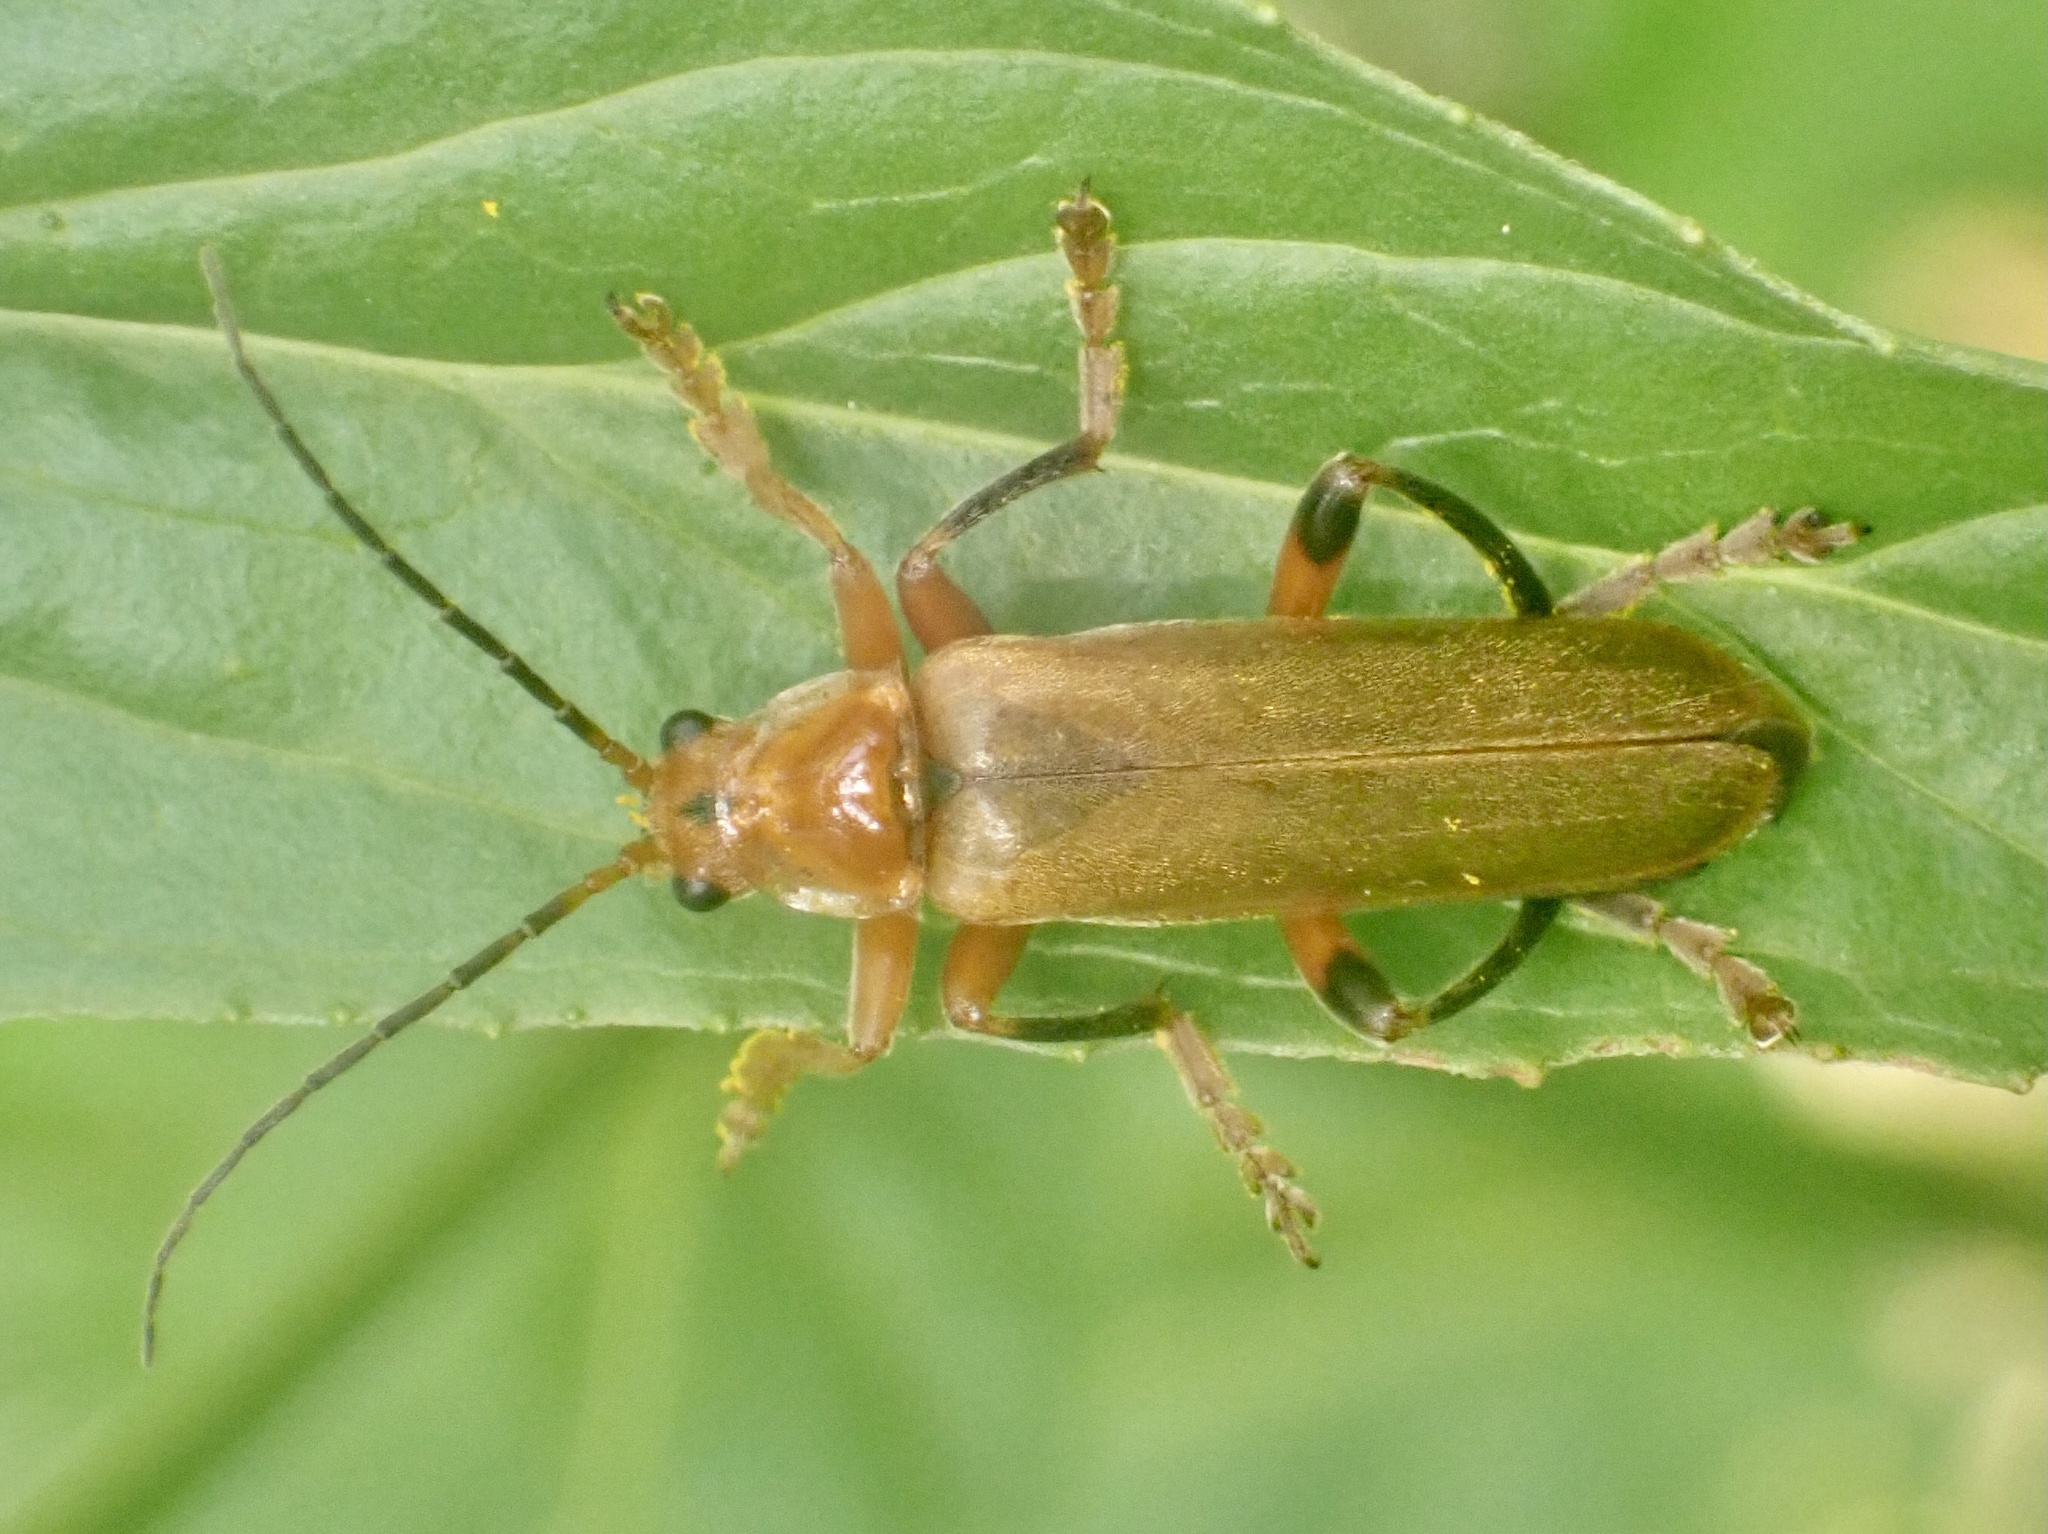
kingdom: Animalia
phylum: Arthropoda
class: Insecta
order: Coleoptera
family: Cantharidae
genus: Cantharis
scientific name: Cantharis livida
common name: Livid soldier beetle
